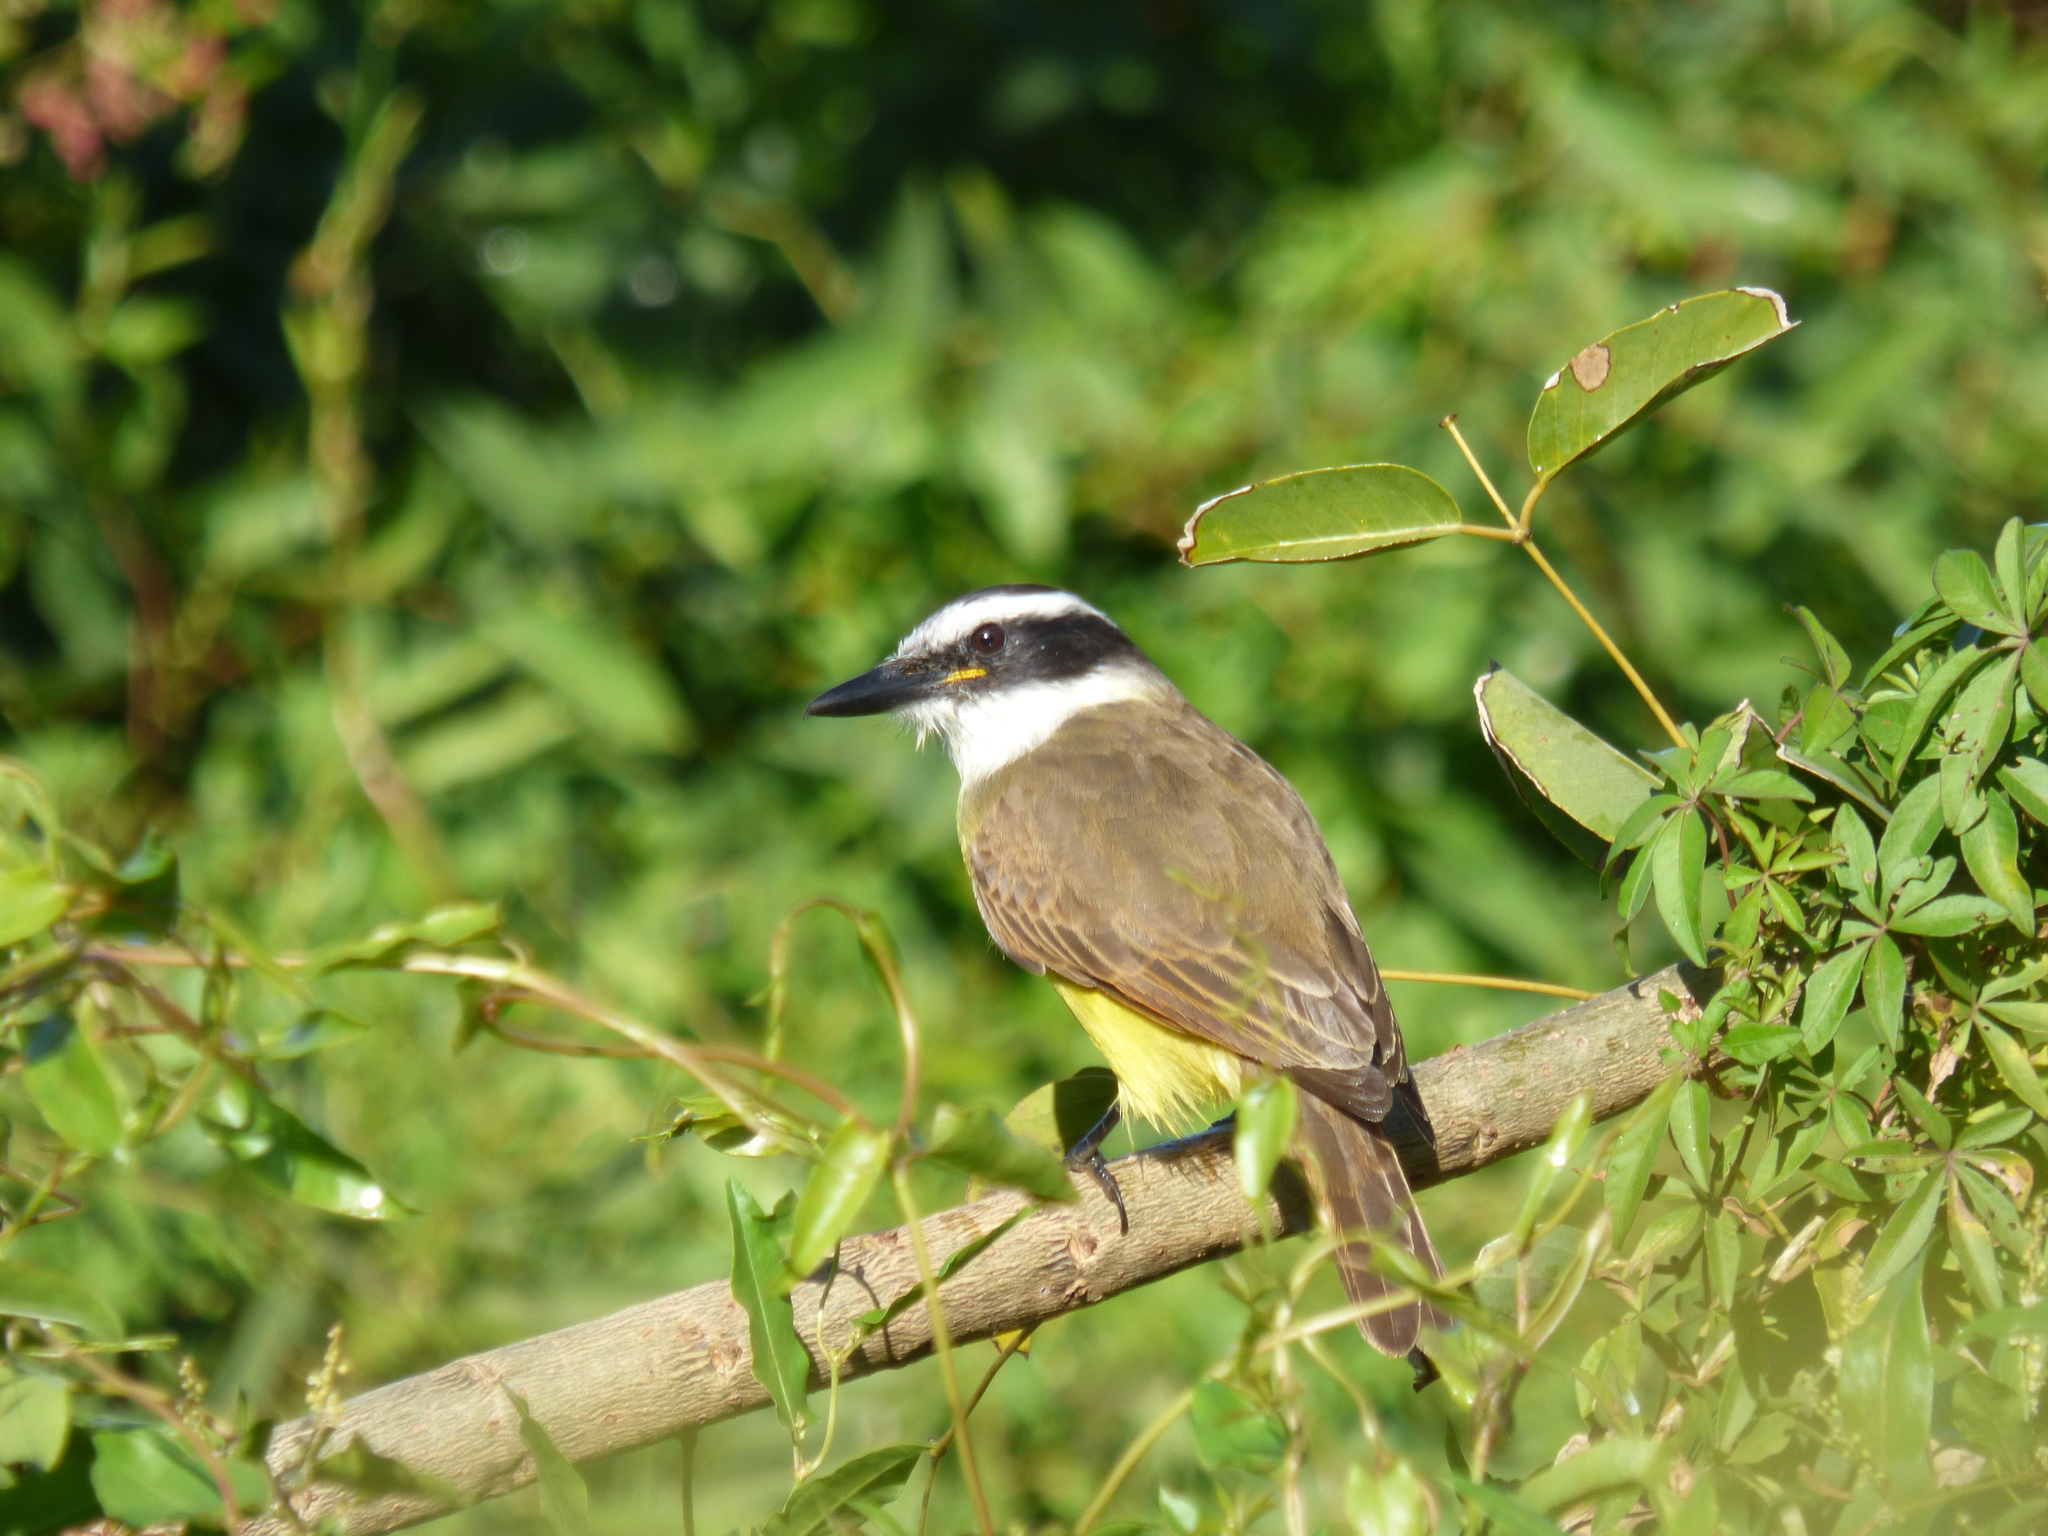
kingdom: Animalia
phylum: Chordata
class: Aves
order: Passeriformes
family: Tyrannidae
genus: Pitangus
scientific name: Pitangus sulphuratus
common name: Great kiskadee
